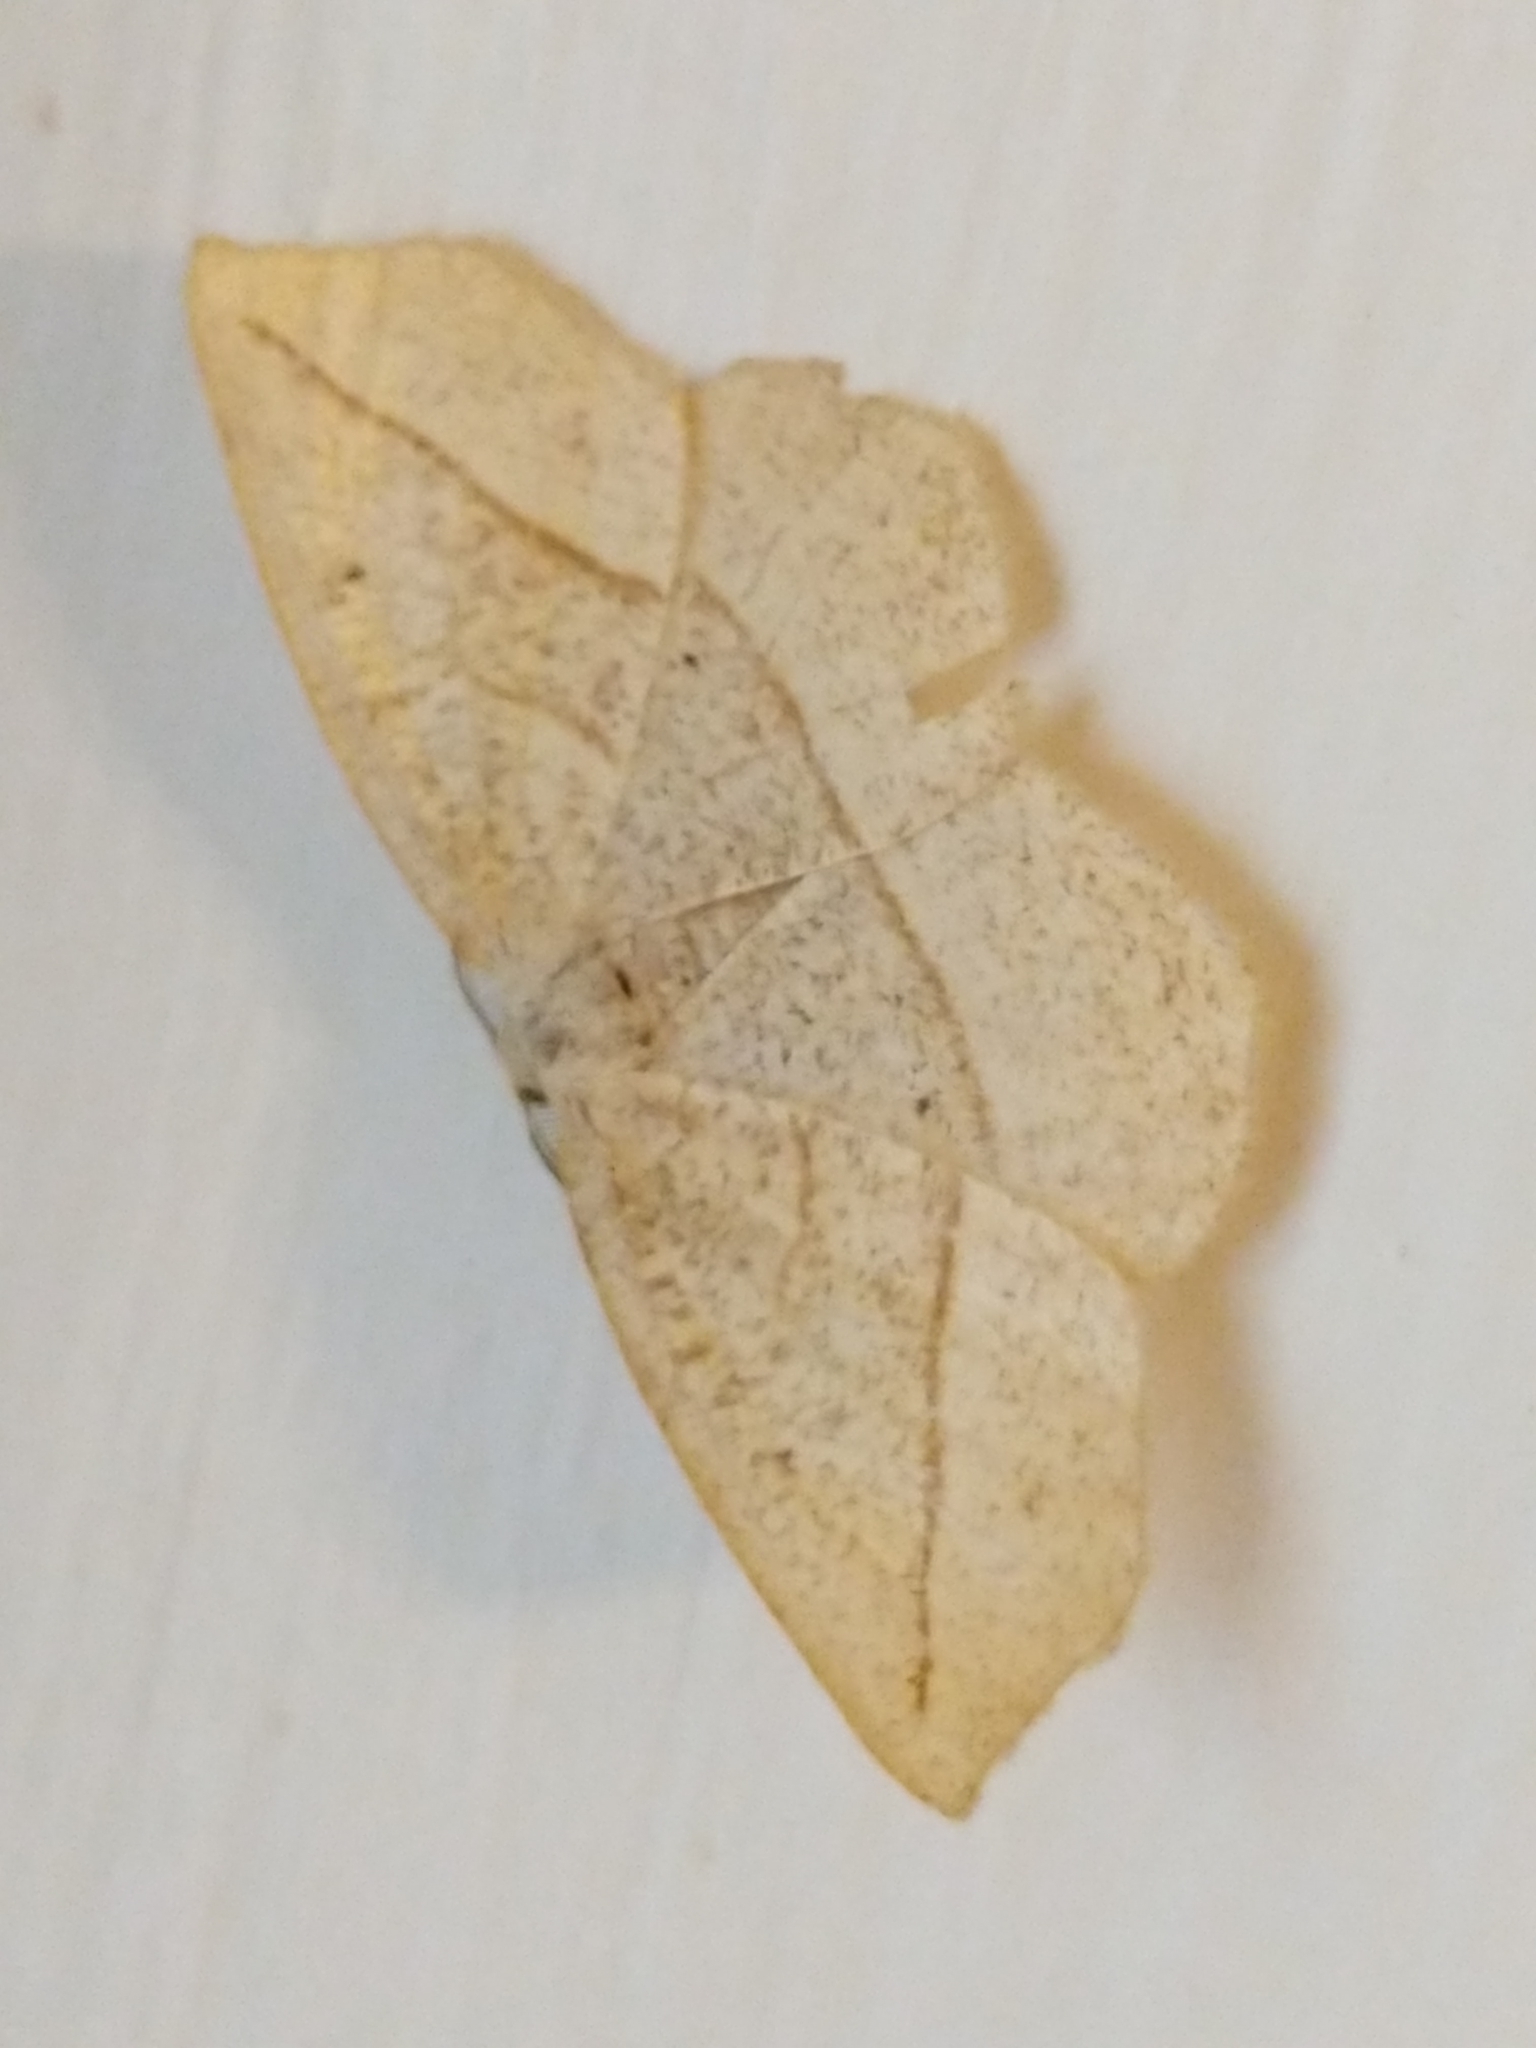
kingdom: Animalia
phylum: Arthropoda
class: Insecta
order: Lepidoptera
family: Geometridae
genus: Eusarca
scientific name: Eusarca confusaria
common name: Confused eusarca
